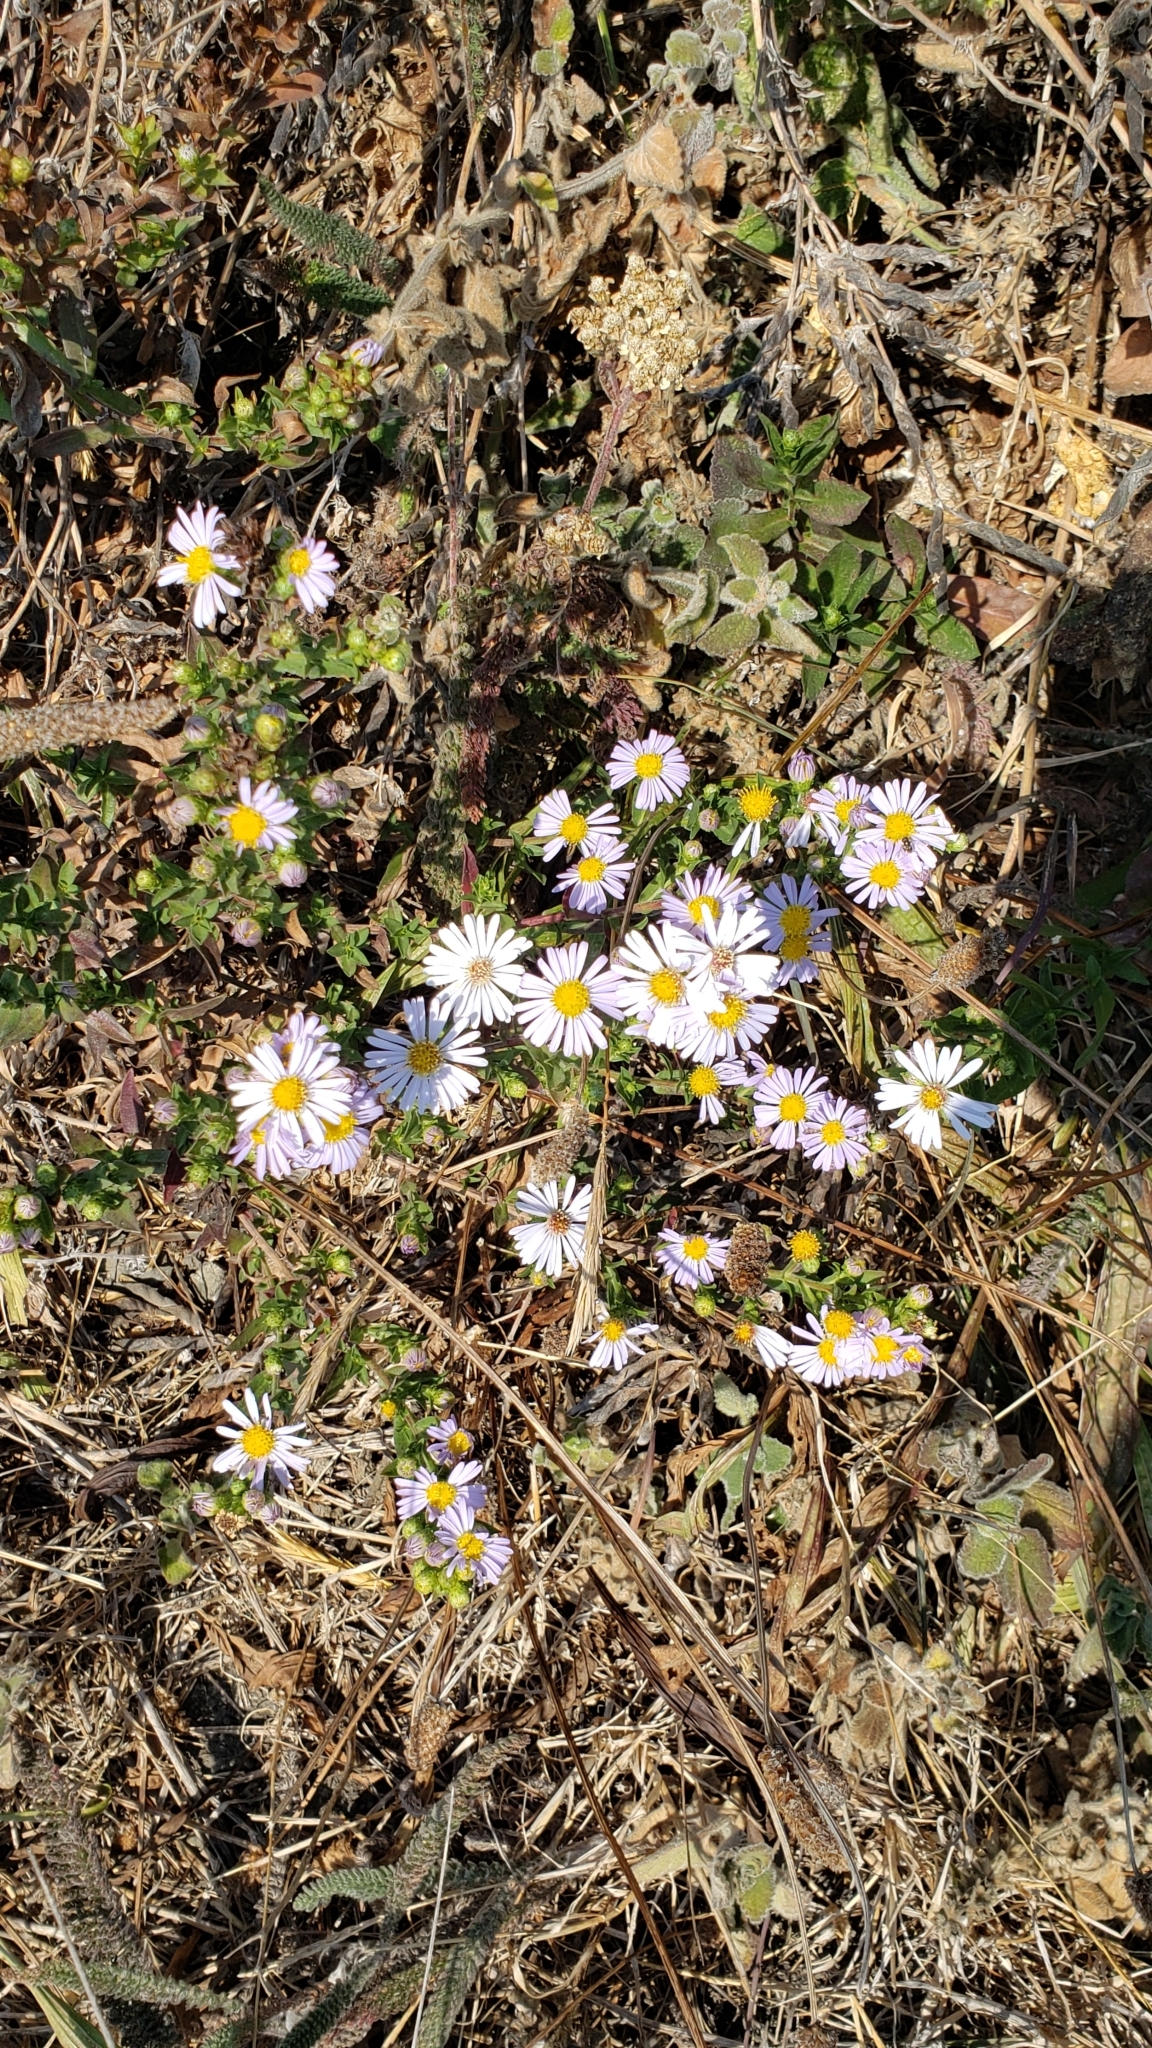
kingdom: Plantae
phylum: Tracheophyta
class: Magnoliopsida
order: Asterales
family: Asteraceae
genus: Symphyotrichum
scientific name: Symphyotrichum chilense
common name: Pacific aster
